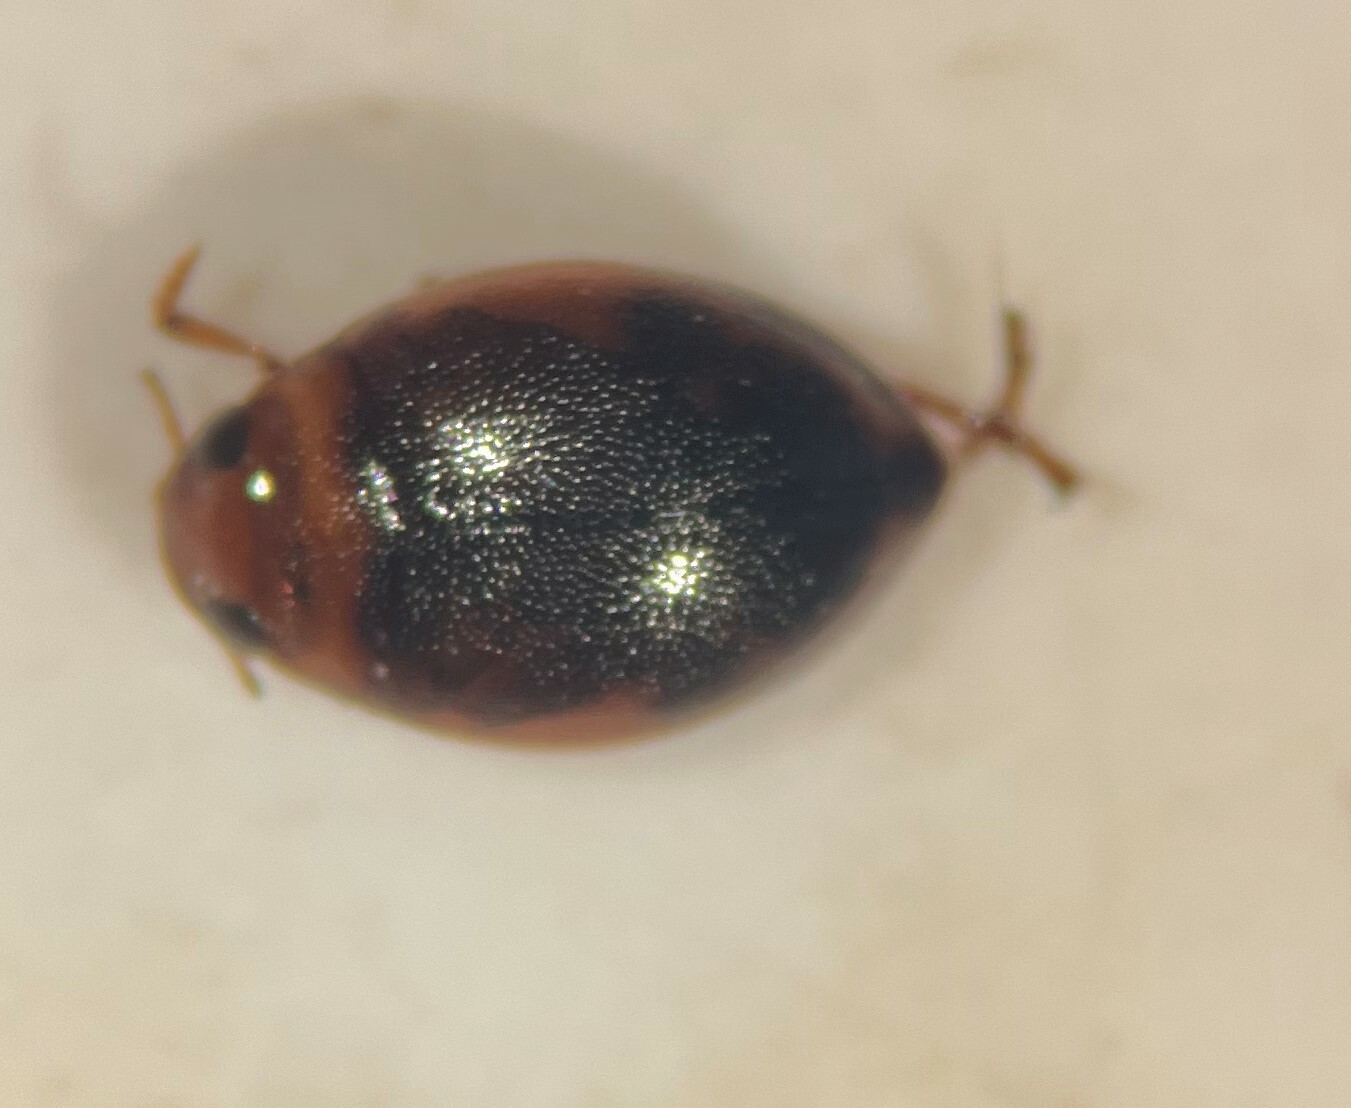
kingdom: Animalia
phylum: Arthropoda
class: Insecta
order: Coleoptera
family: Dytiscidae
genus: Hygrotus
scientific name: Hygrotus sayi
